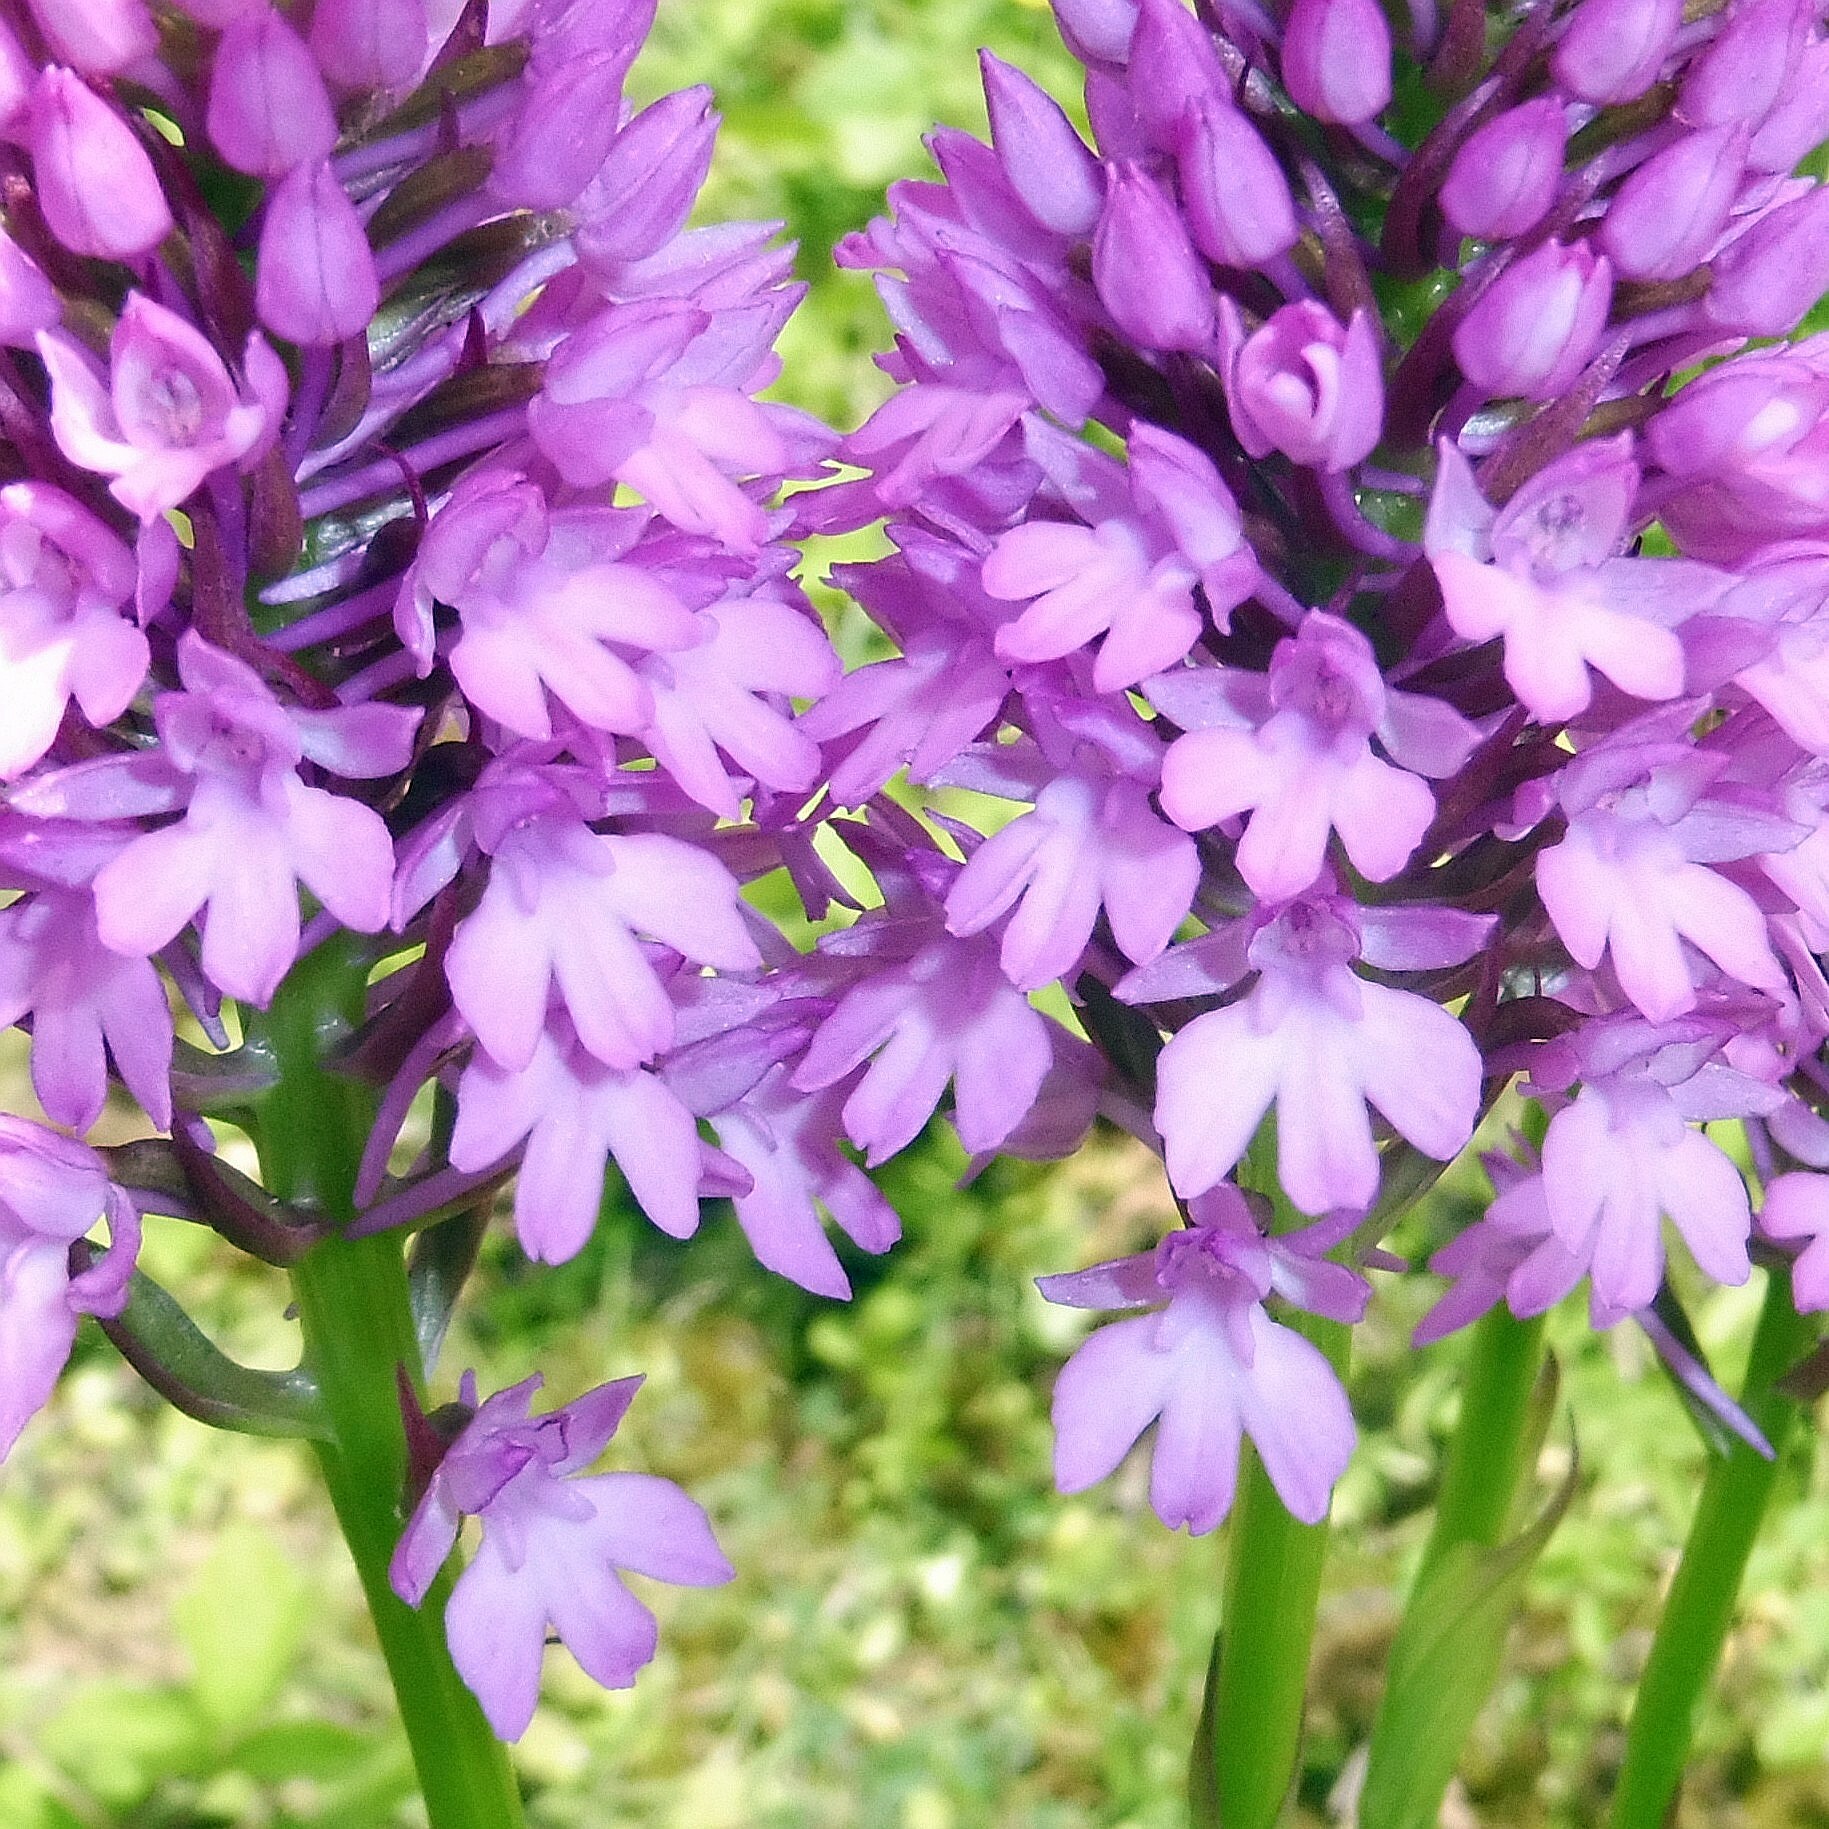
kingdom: Plantae
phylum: Tracheophyta
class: Liliopsida
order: Asparagales
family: Orchidaceae
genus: Anacamptis
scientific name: Anacamptis pyramidalis
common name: Pyramidal orchid
